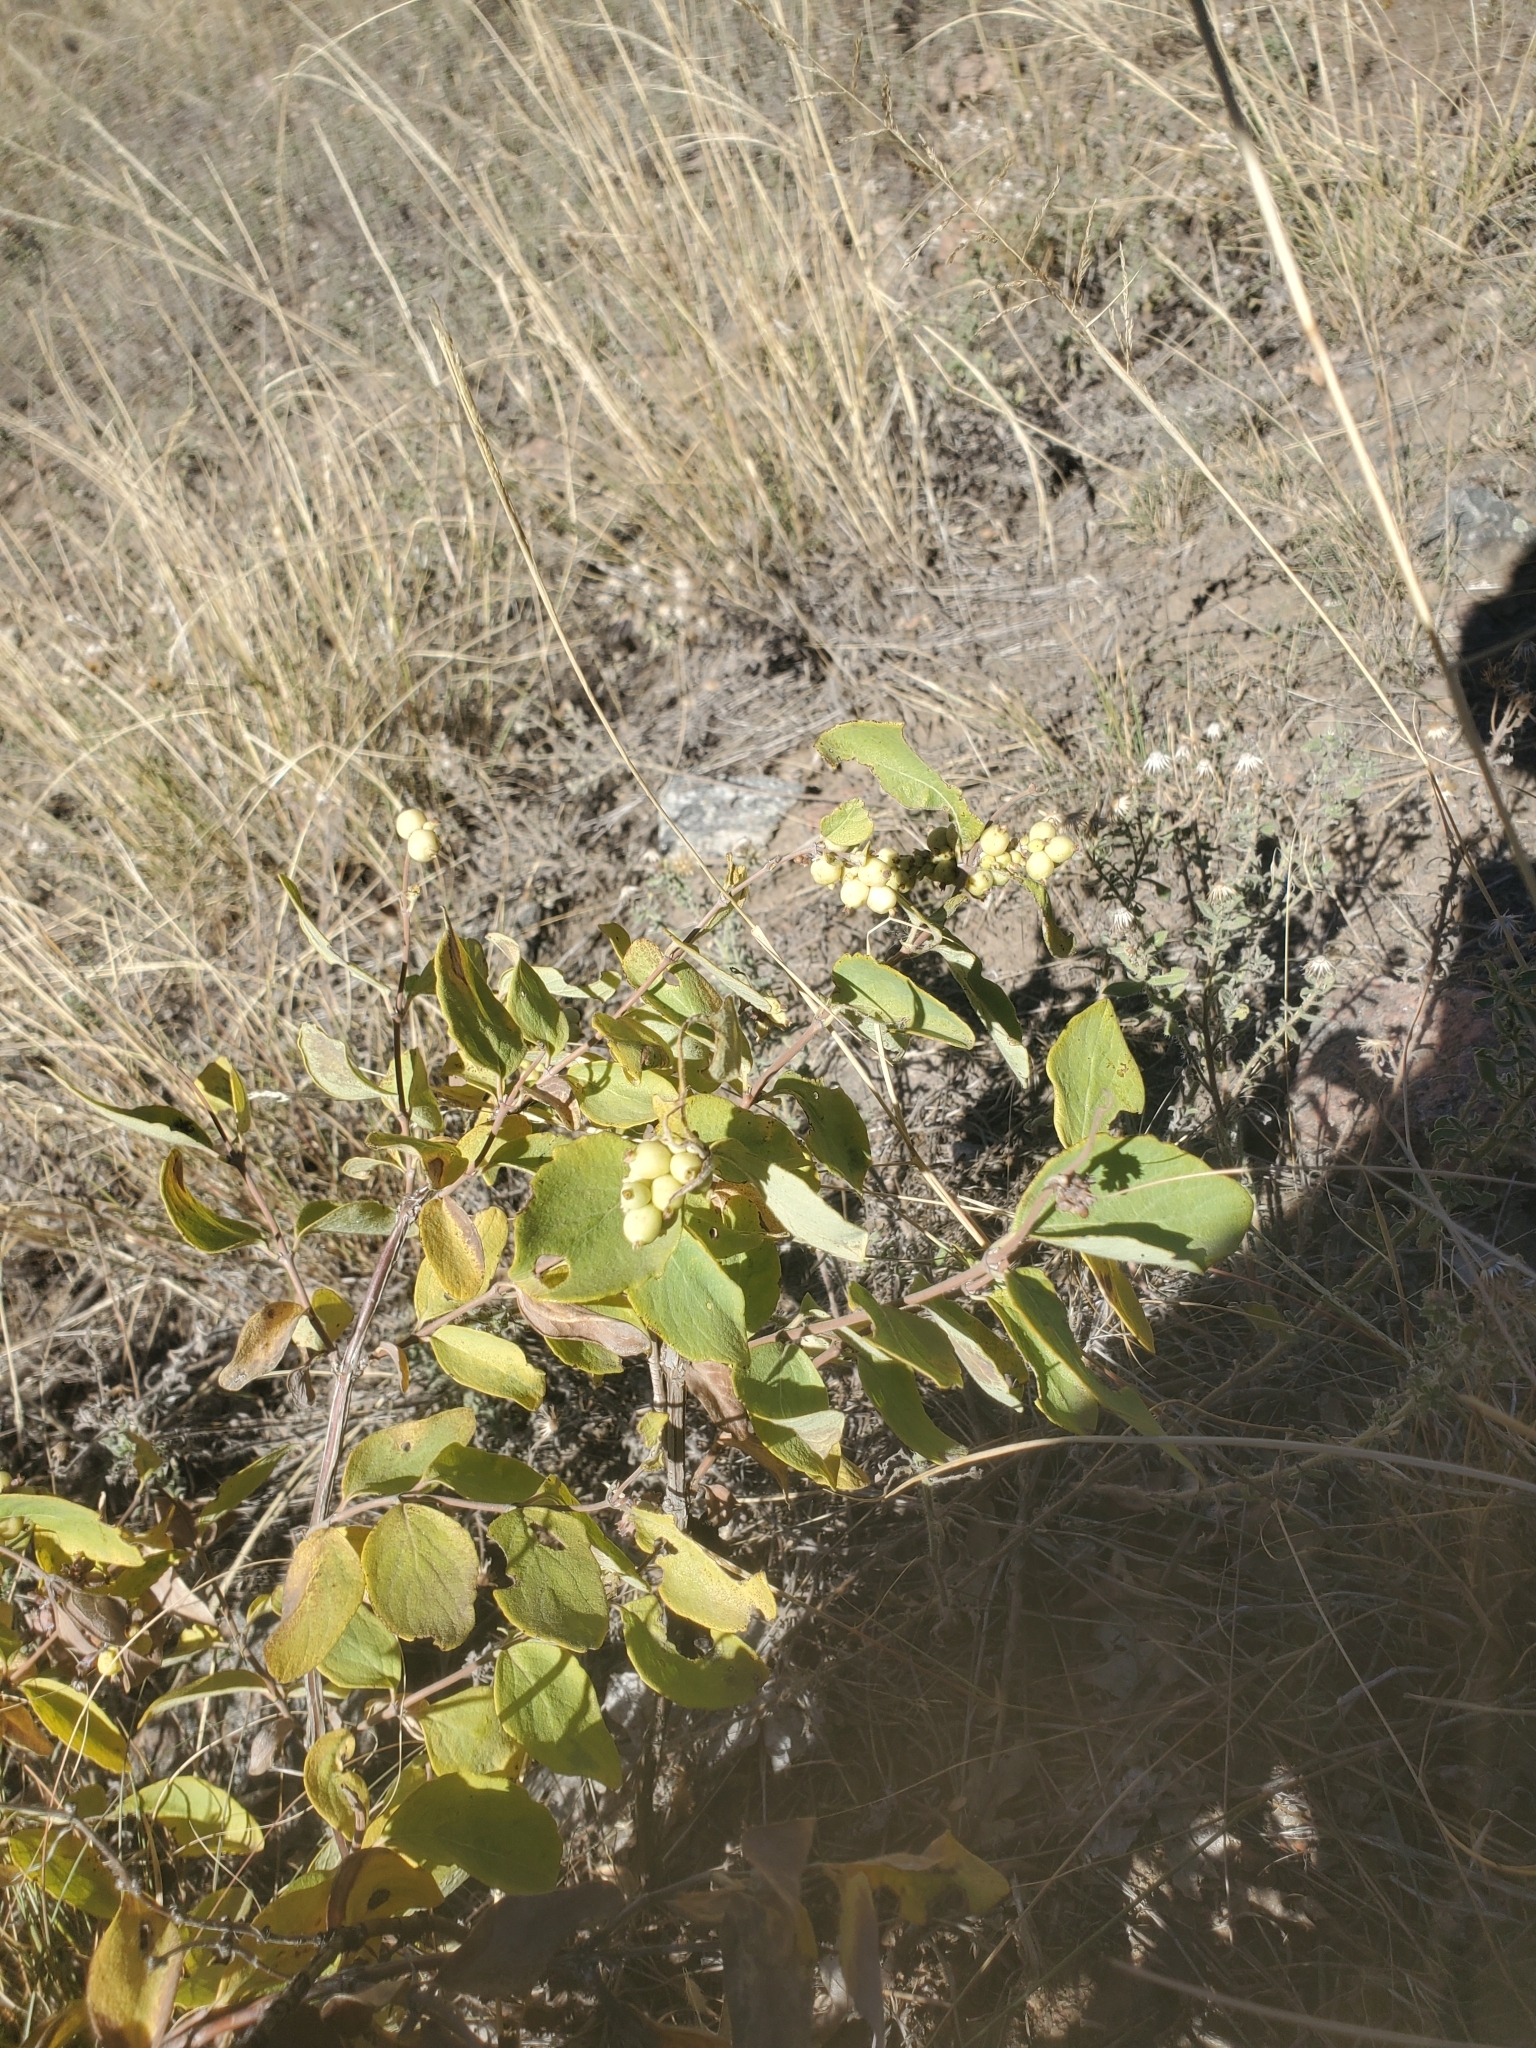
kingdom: Plantae
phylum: Tracheophyta
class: Magnoliopsida
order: Dipsacales
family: Caprifoliaceae
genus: Symphoricarpos
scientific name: Symphoricarpos
